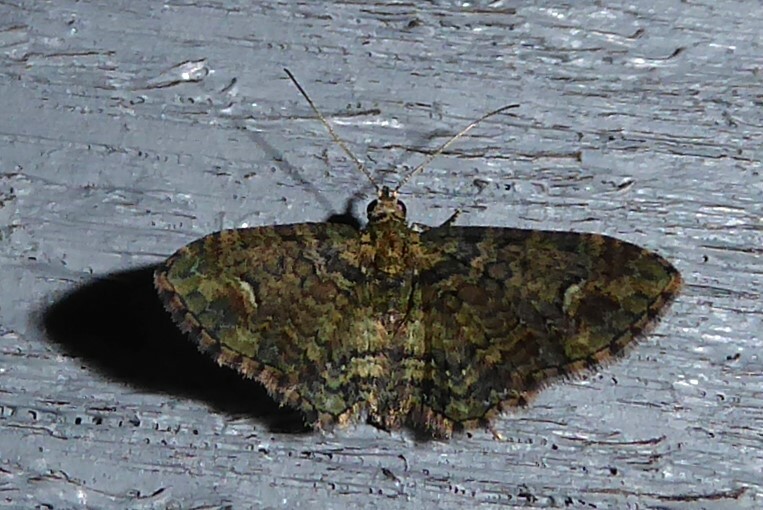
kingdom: Animalia
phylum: Arthropoda
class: Insecta
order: Lepidoptera
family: Geometridae
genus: Pasiphilodes
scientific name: Pasiphilodes testulata
